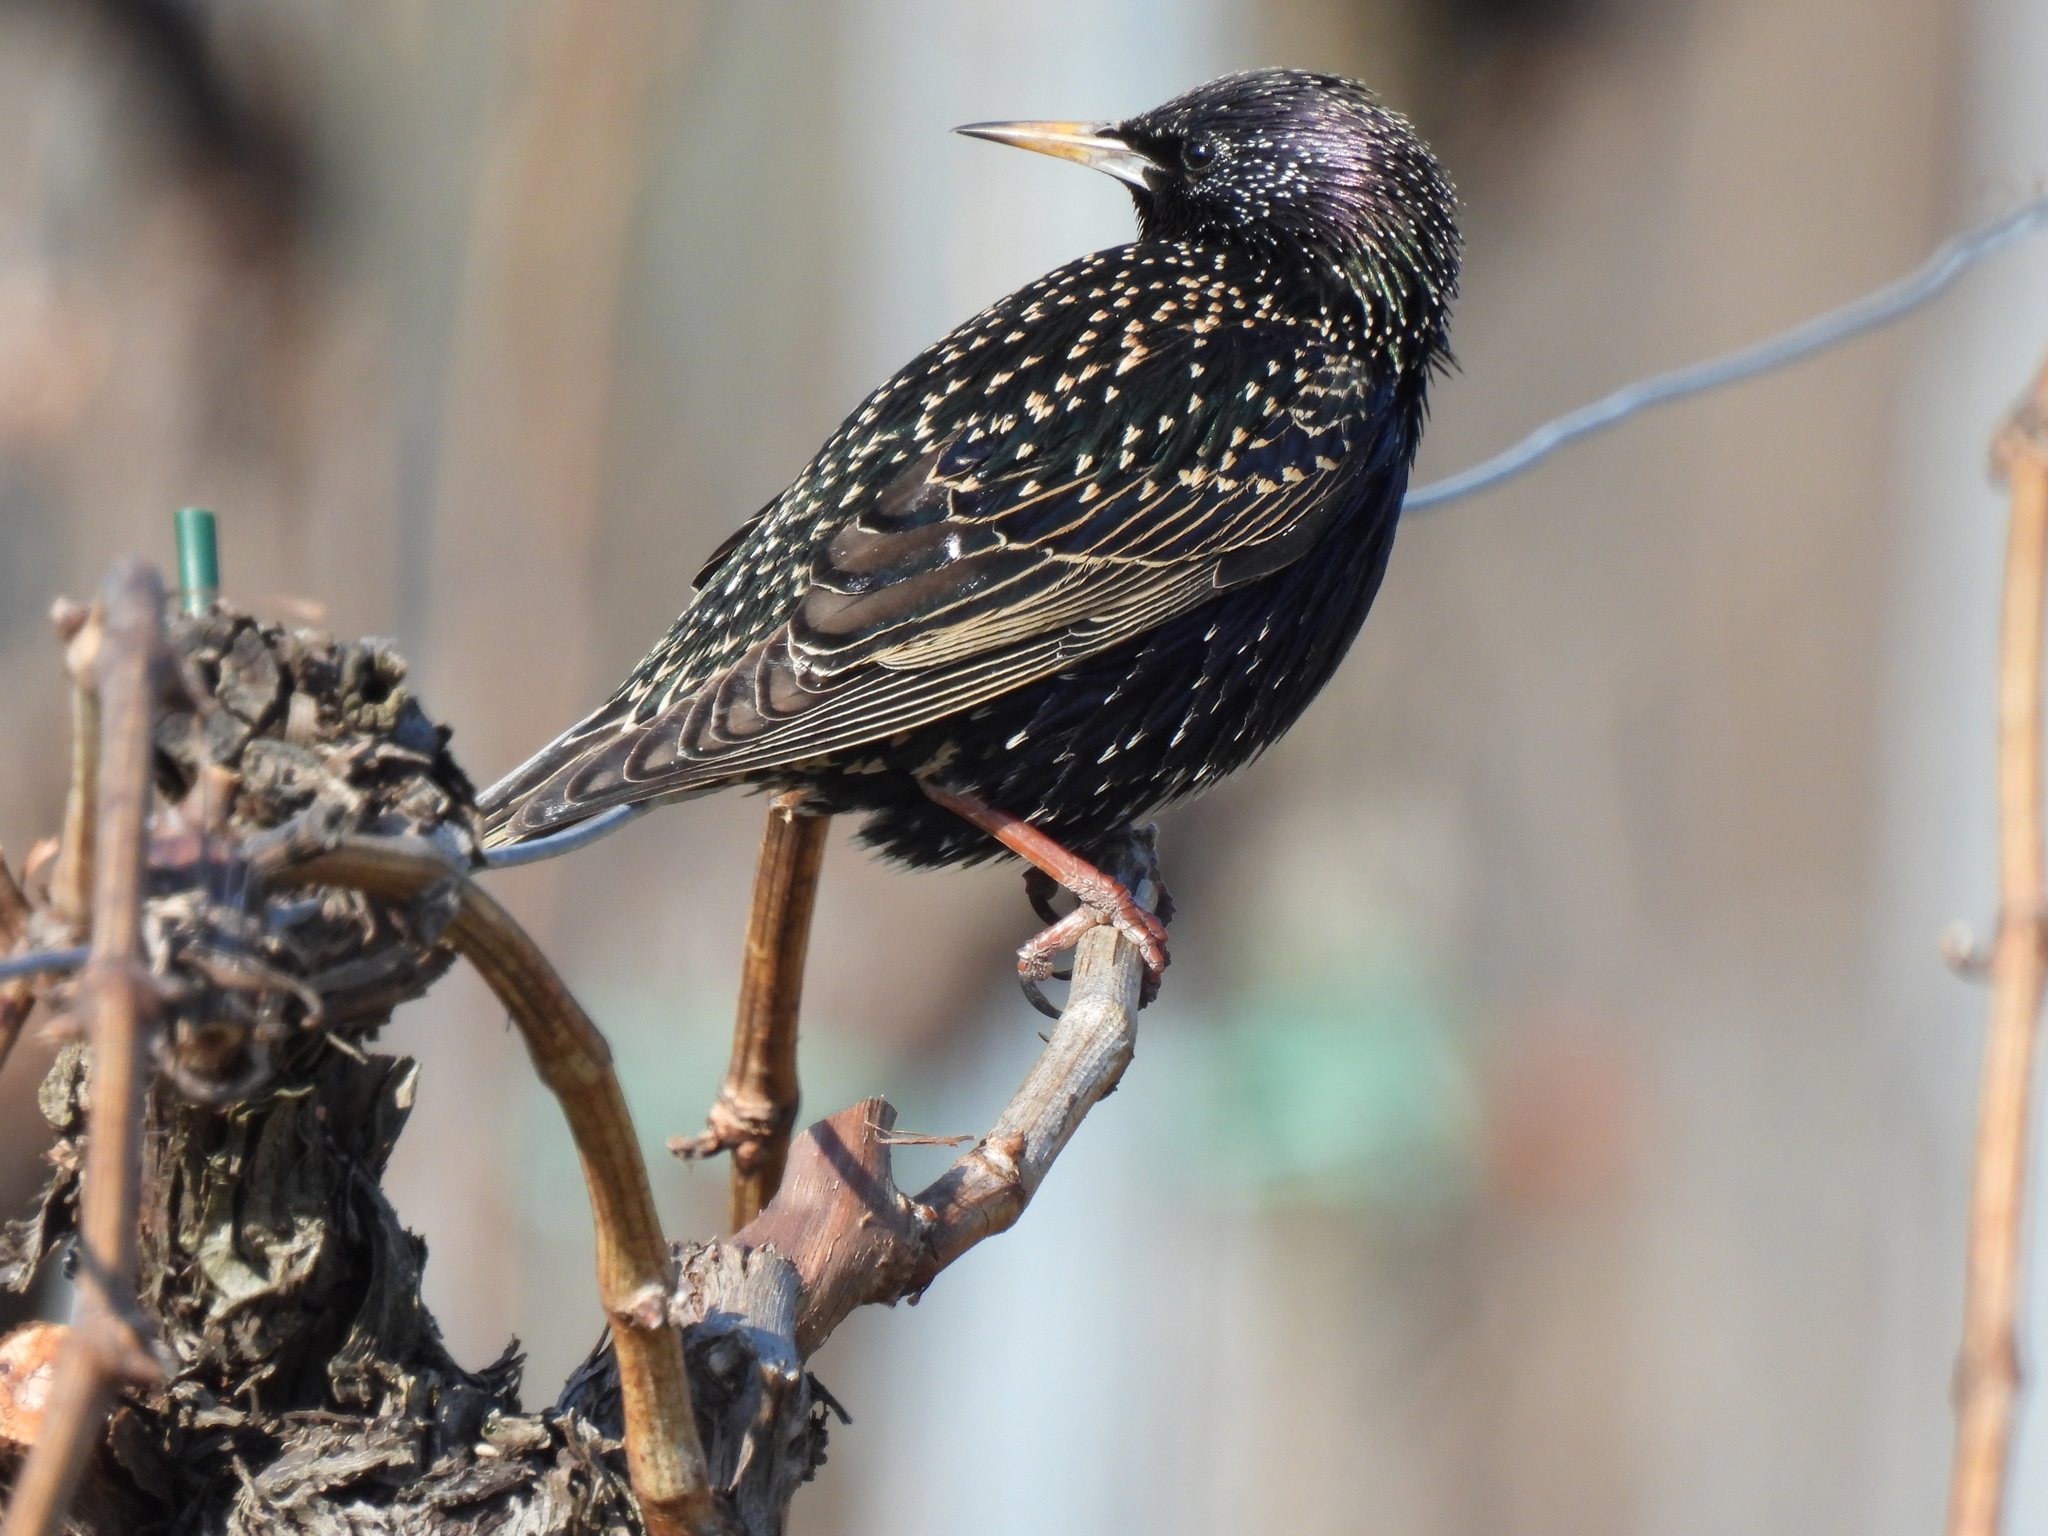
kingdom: Animalia
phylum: Chordata
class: Aves
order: Passeriformes
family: Sturnidae
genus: Sturnus
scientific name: Sturnus vulgaris
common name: Common starling
